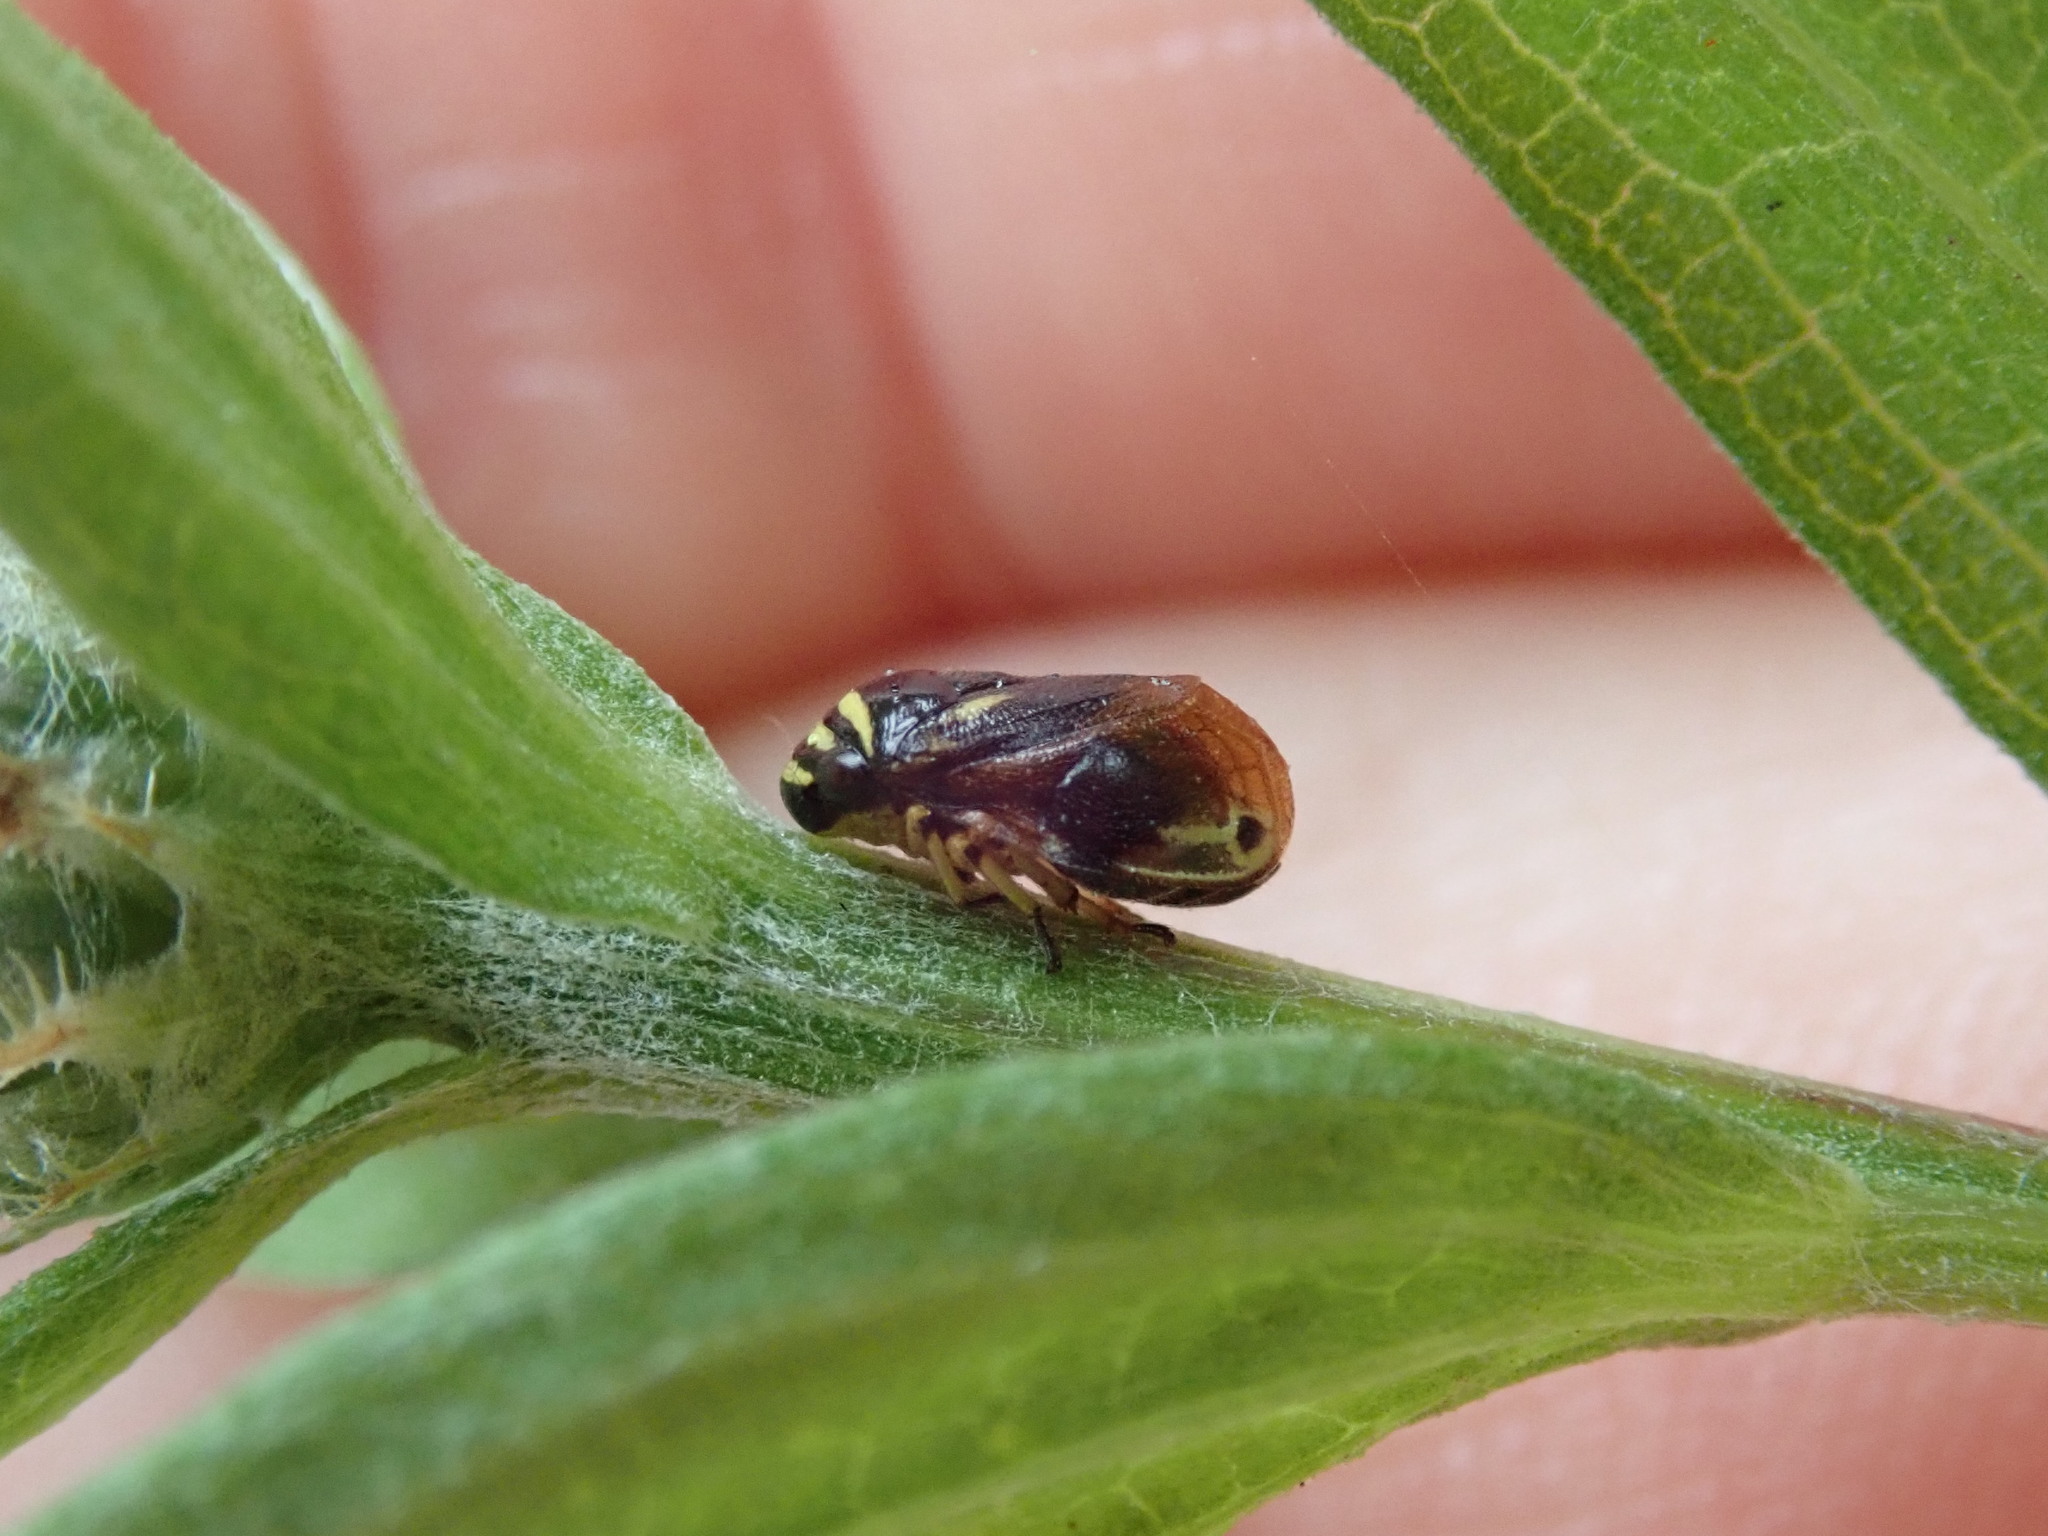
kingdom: Animalia
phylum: Arthropoda
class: Insecta
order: Hemiptera
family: Clastopteridae
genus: Clastoptera
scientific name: Clastoptera proteus
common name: Dogwood spittlebug
